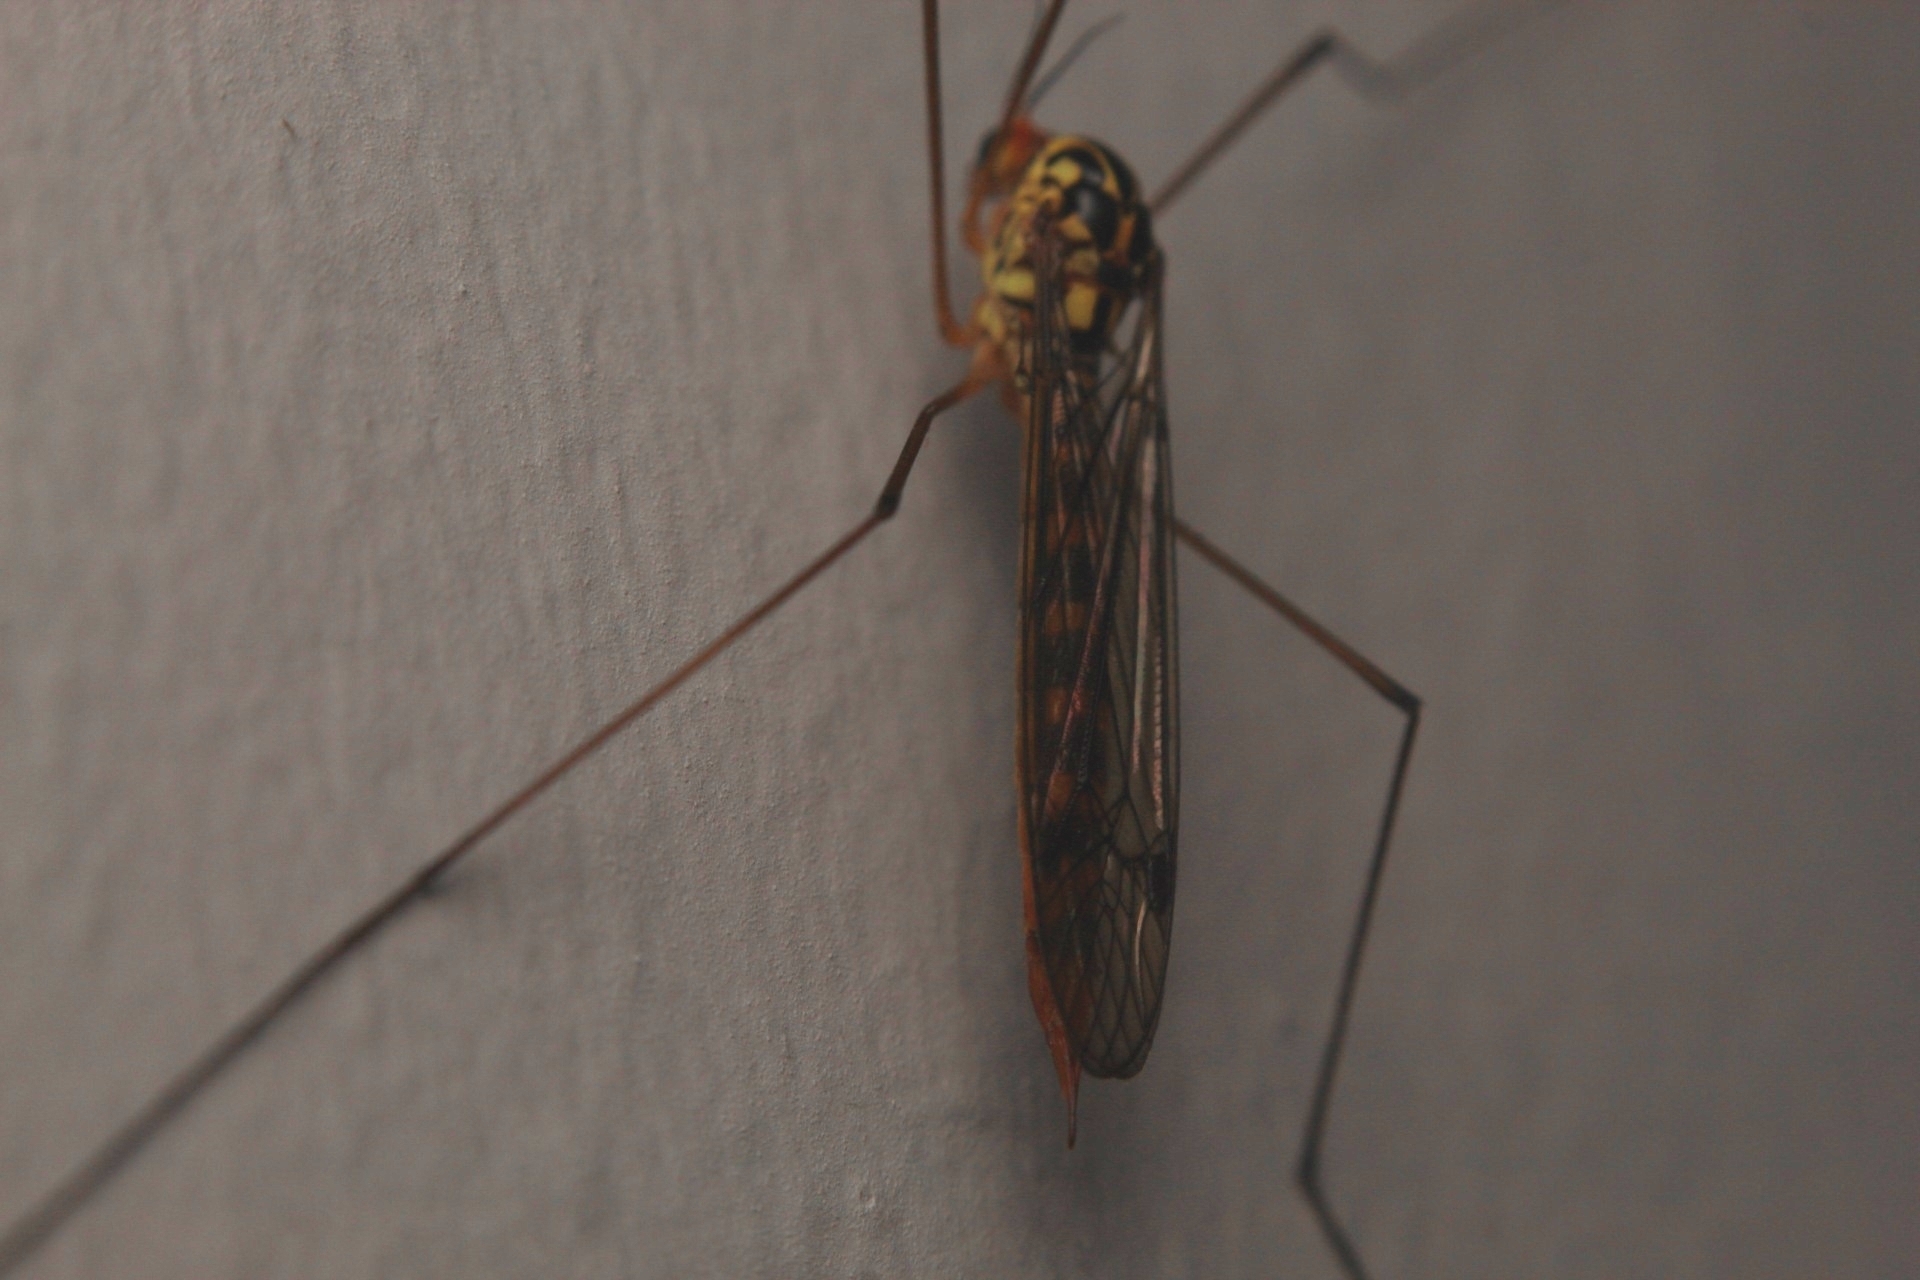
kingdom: Animalia
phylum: Arthropoda
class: Insecta
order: Diptera
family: Tipulidae
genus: Nephrotoma
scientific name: Nephrotoma flavipalpis
